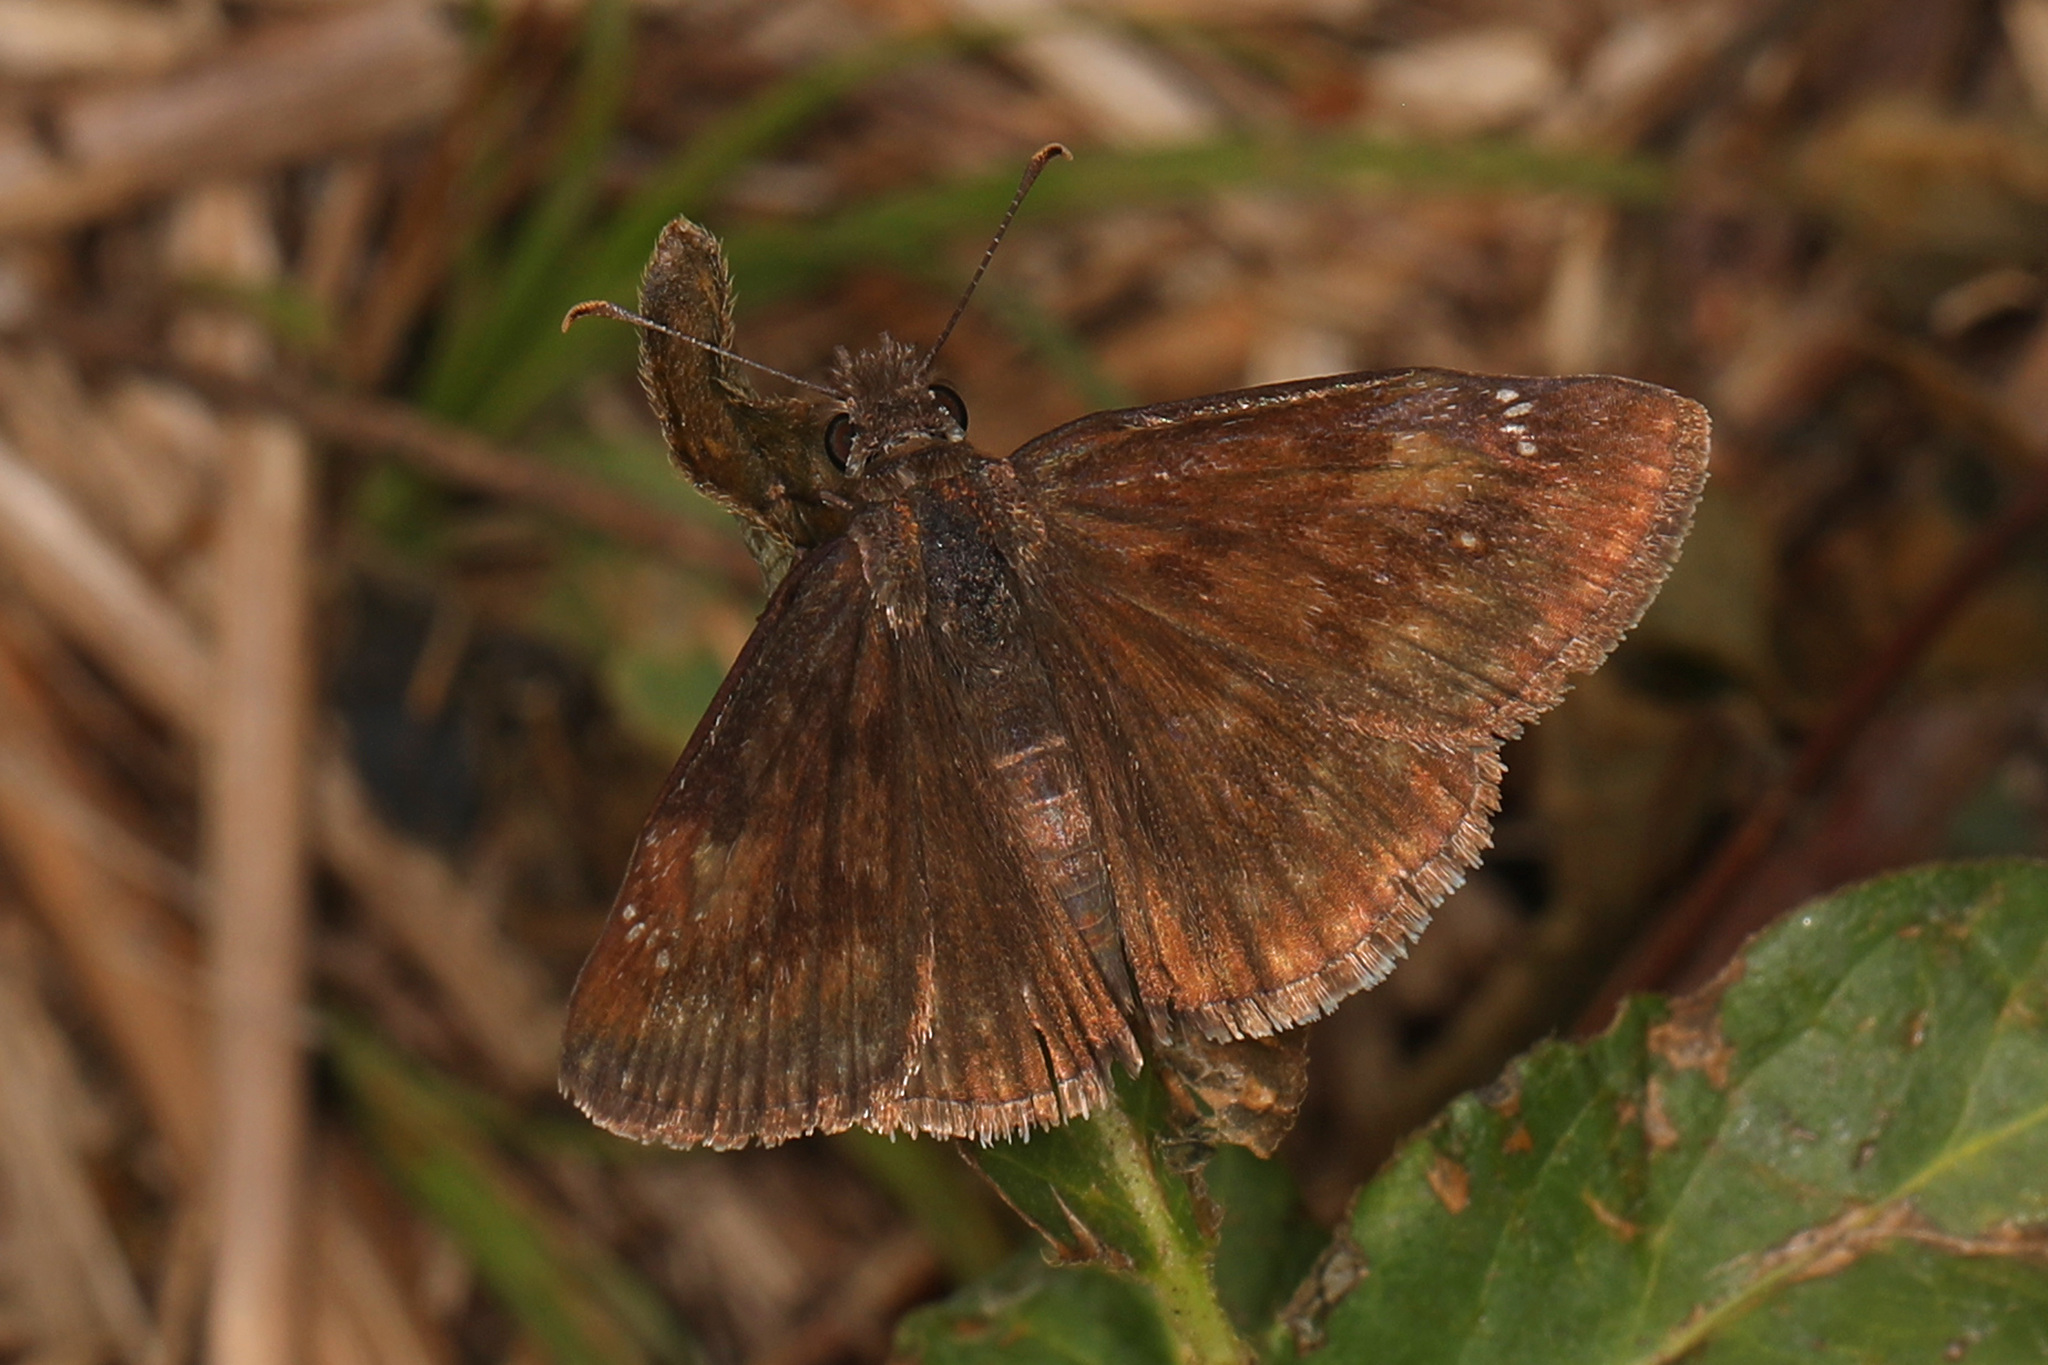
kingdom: Animalia
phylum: Arthropoda
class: Insecta
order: Lepidoptera
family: Hesperiidae
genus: Erynnis
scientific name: Erynnis baptisiae
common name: Wild indigo duskywing
